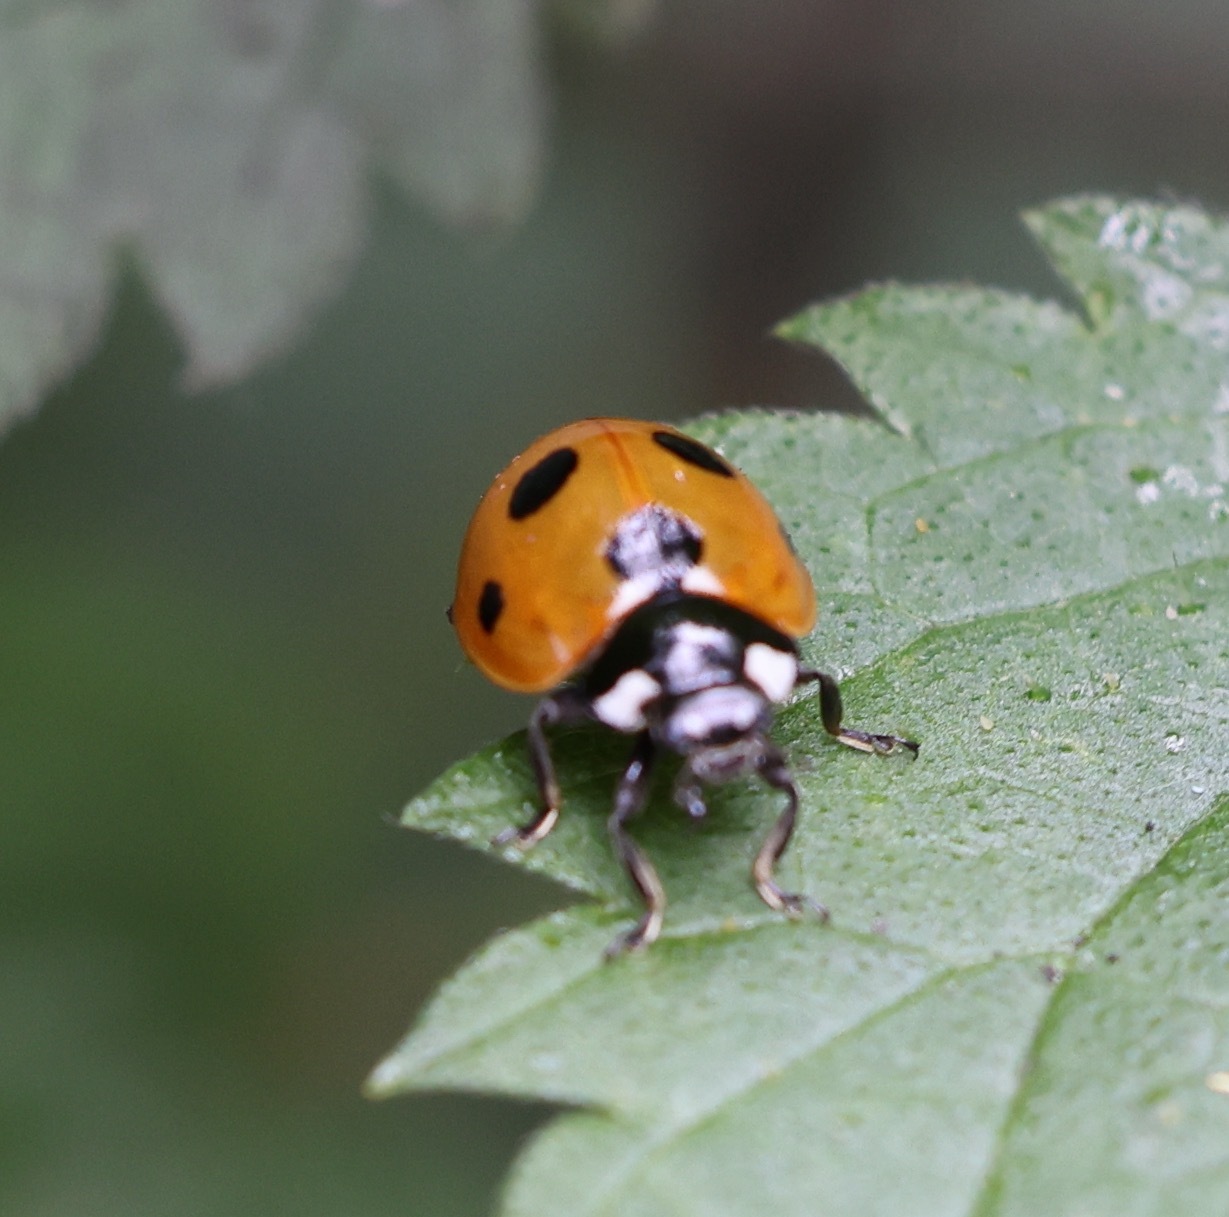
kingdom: Animalia
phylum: Arthropoda
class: Insecta
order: Coleoptera
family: Coccinellidae
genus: Coccinella
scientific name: Coccinella septempunctata
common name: Sevenspotted lady beetle
